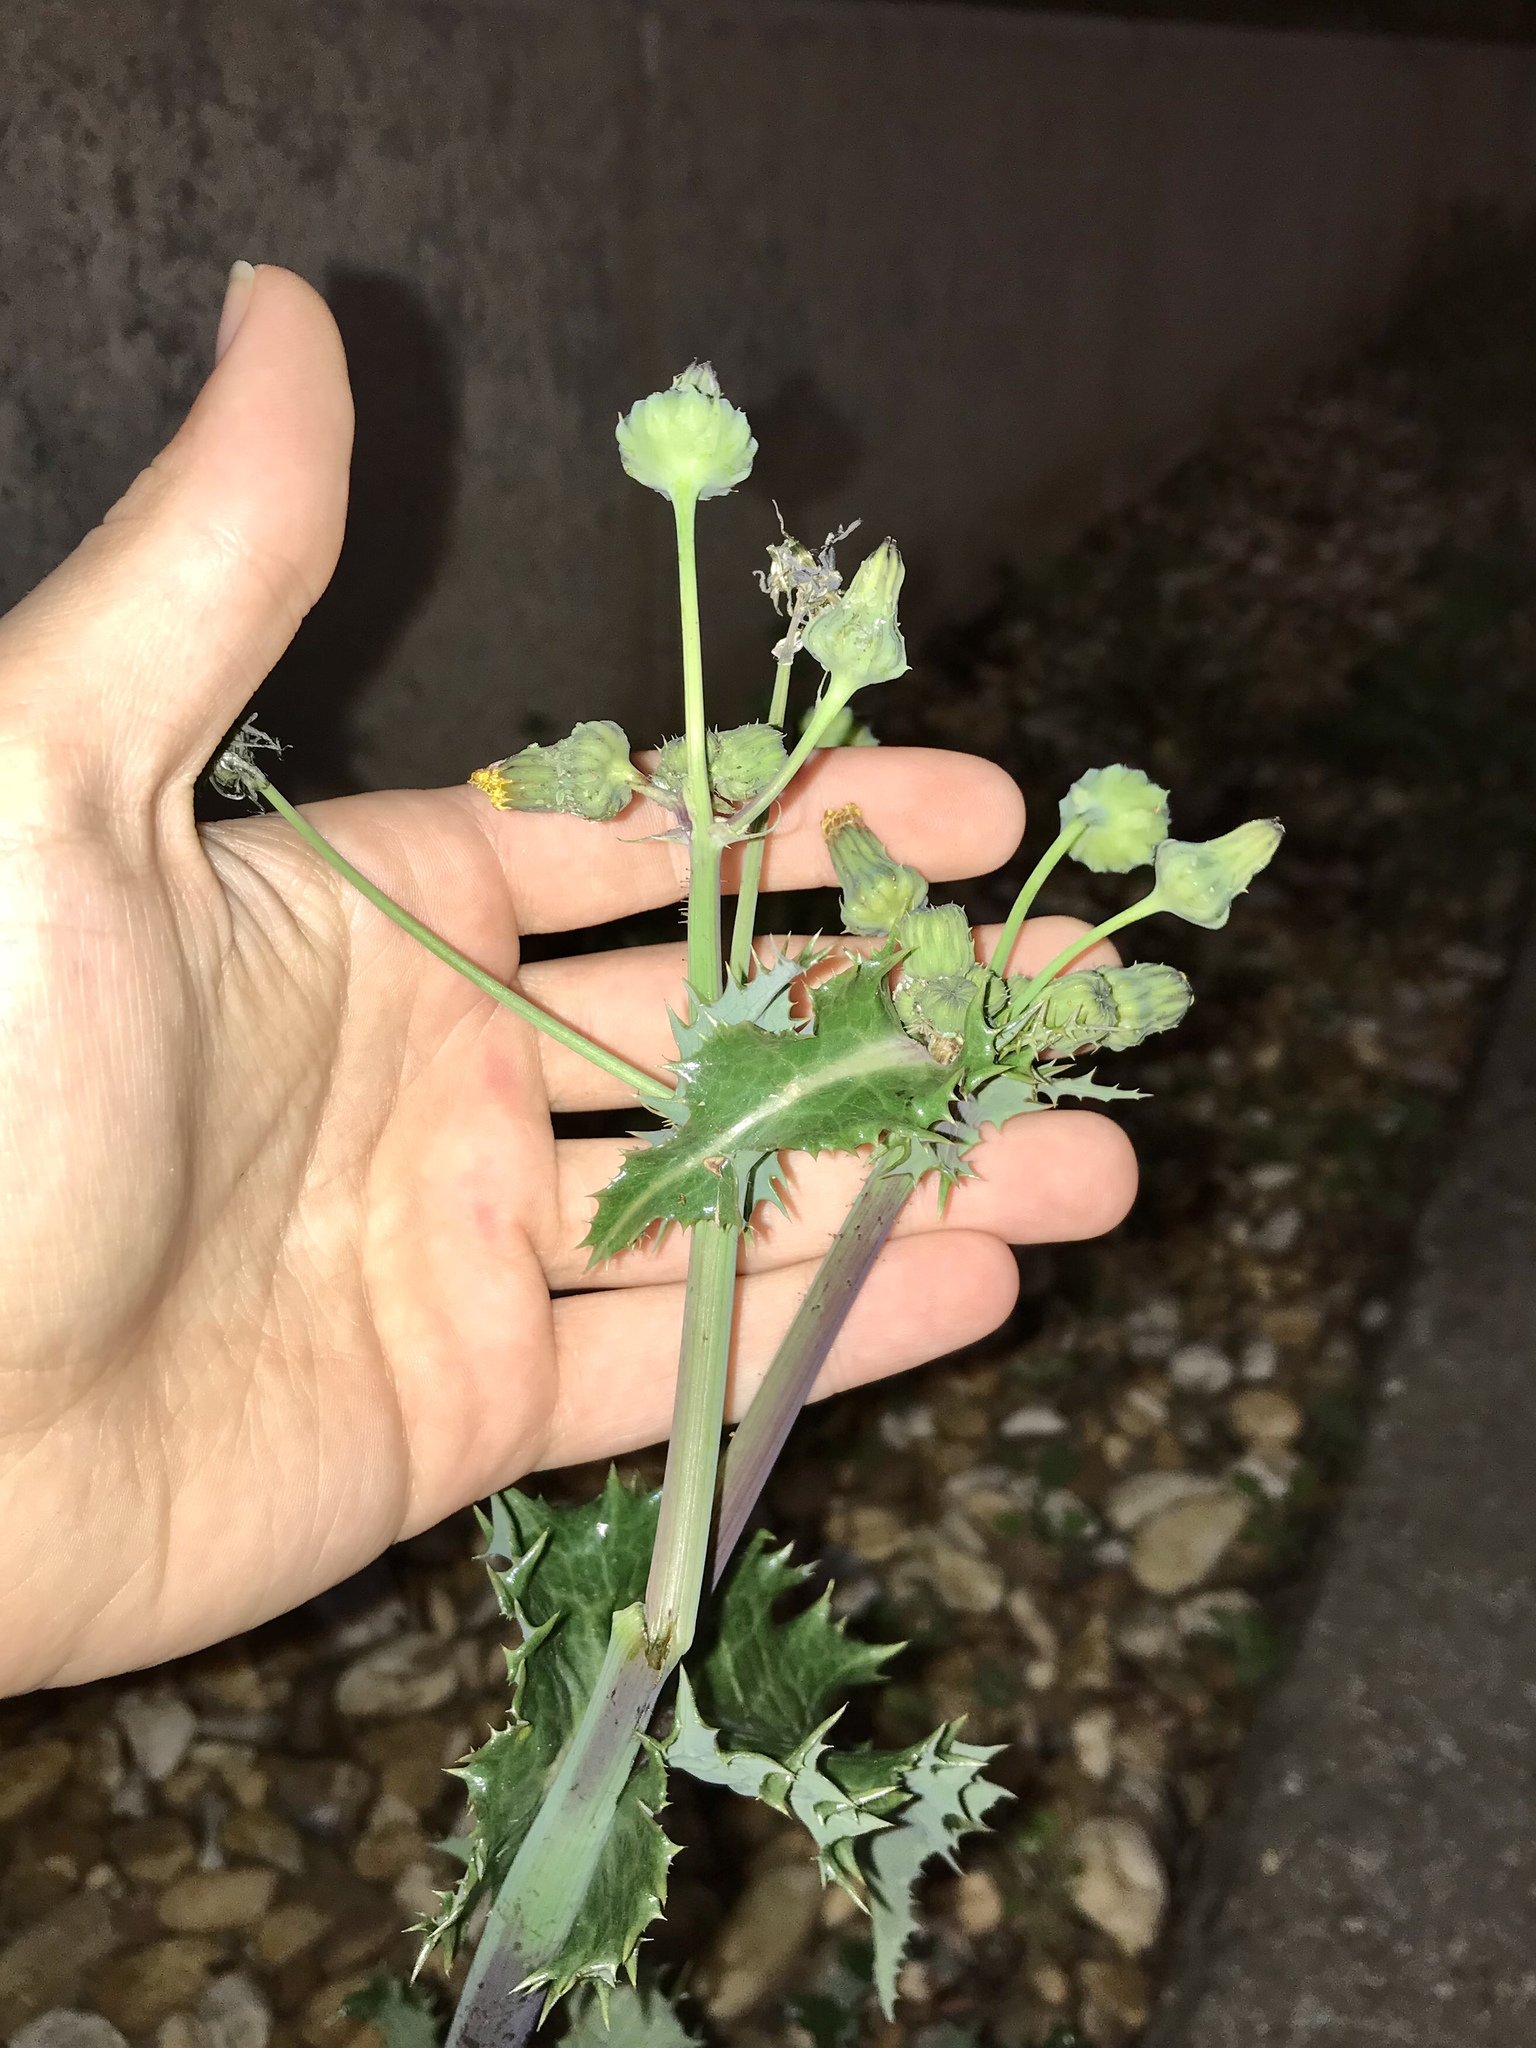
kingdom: Plantae
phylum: Tracheophyta
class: Magnoliopsida
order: Asterales
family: Asteraceae
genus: Sonchus
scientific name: Sonchus asper
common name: Prickly sow-thistle
